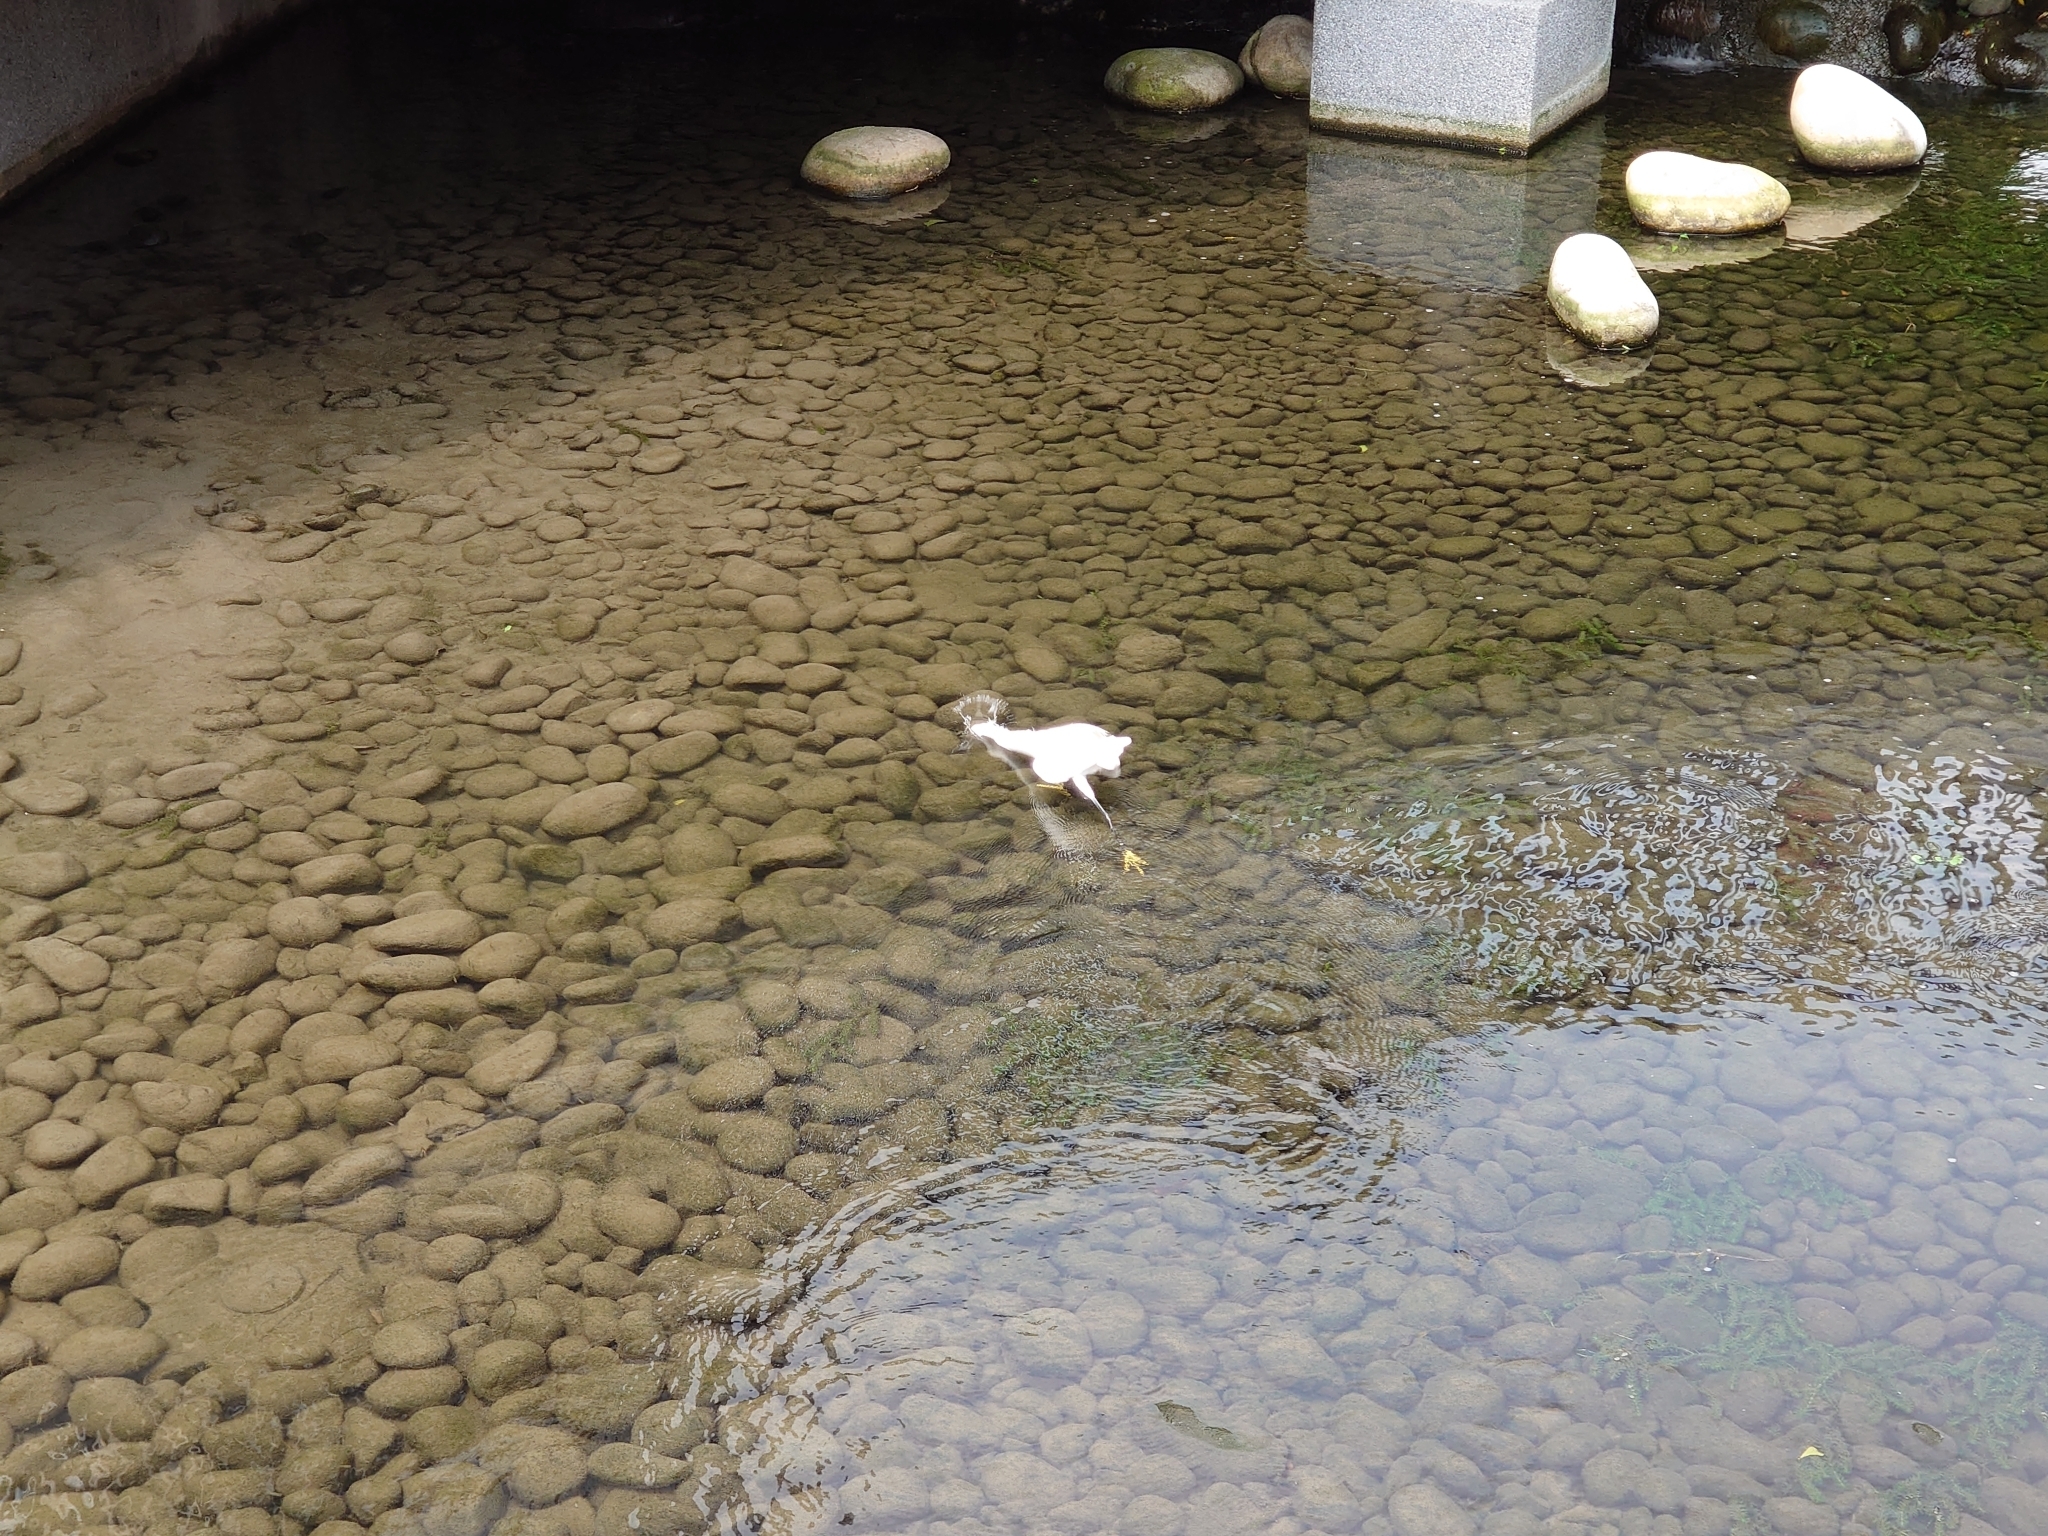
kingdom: Animalia
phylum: Chordata
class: Aves
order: Pelecaniformes
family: Ardeidae
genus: Egretta
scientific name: Egretta garzetta
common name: Little egret
